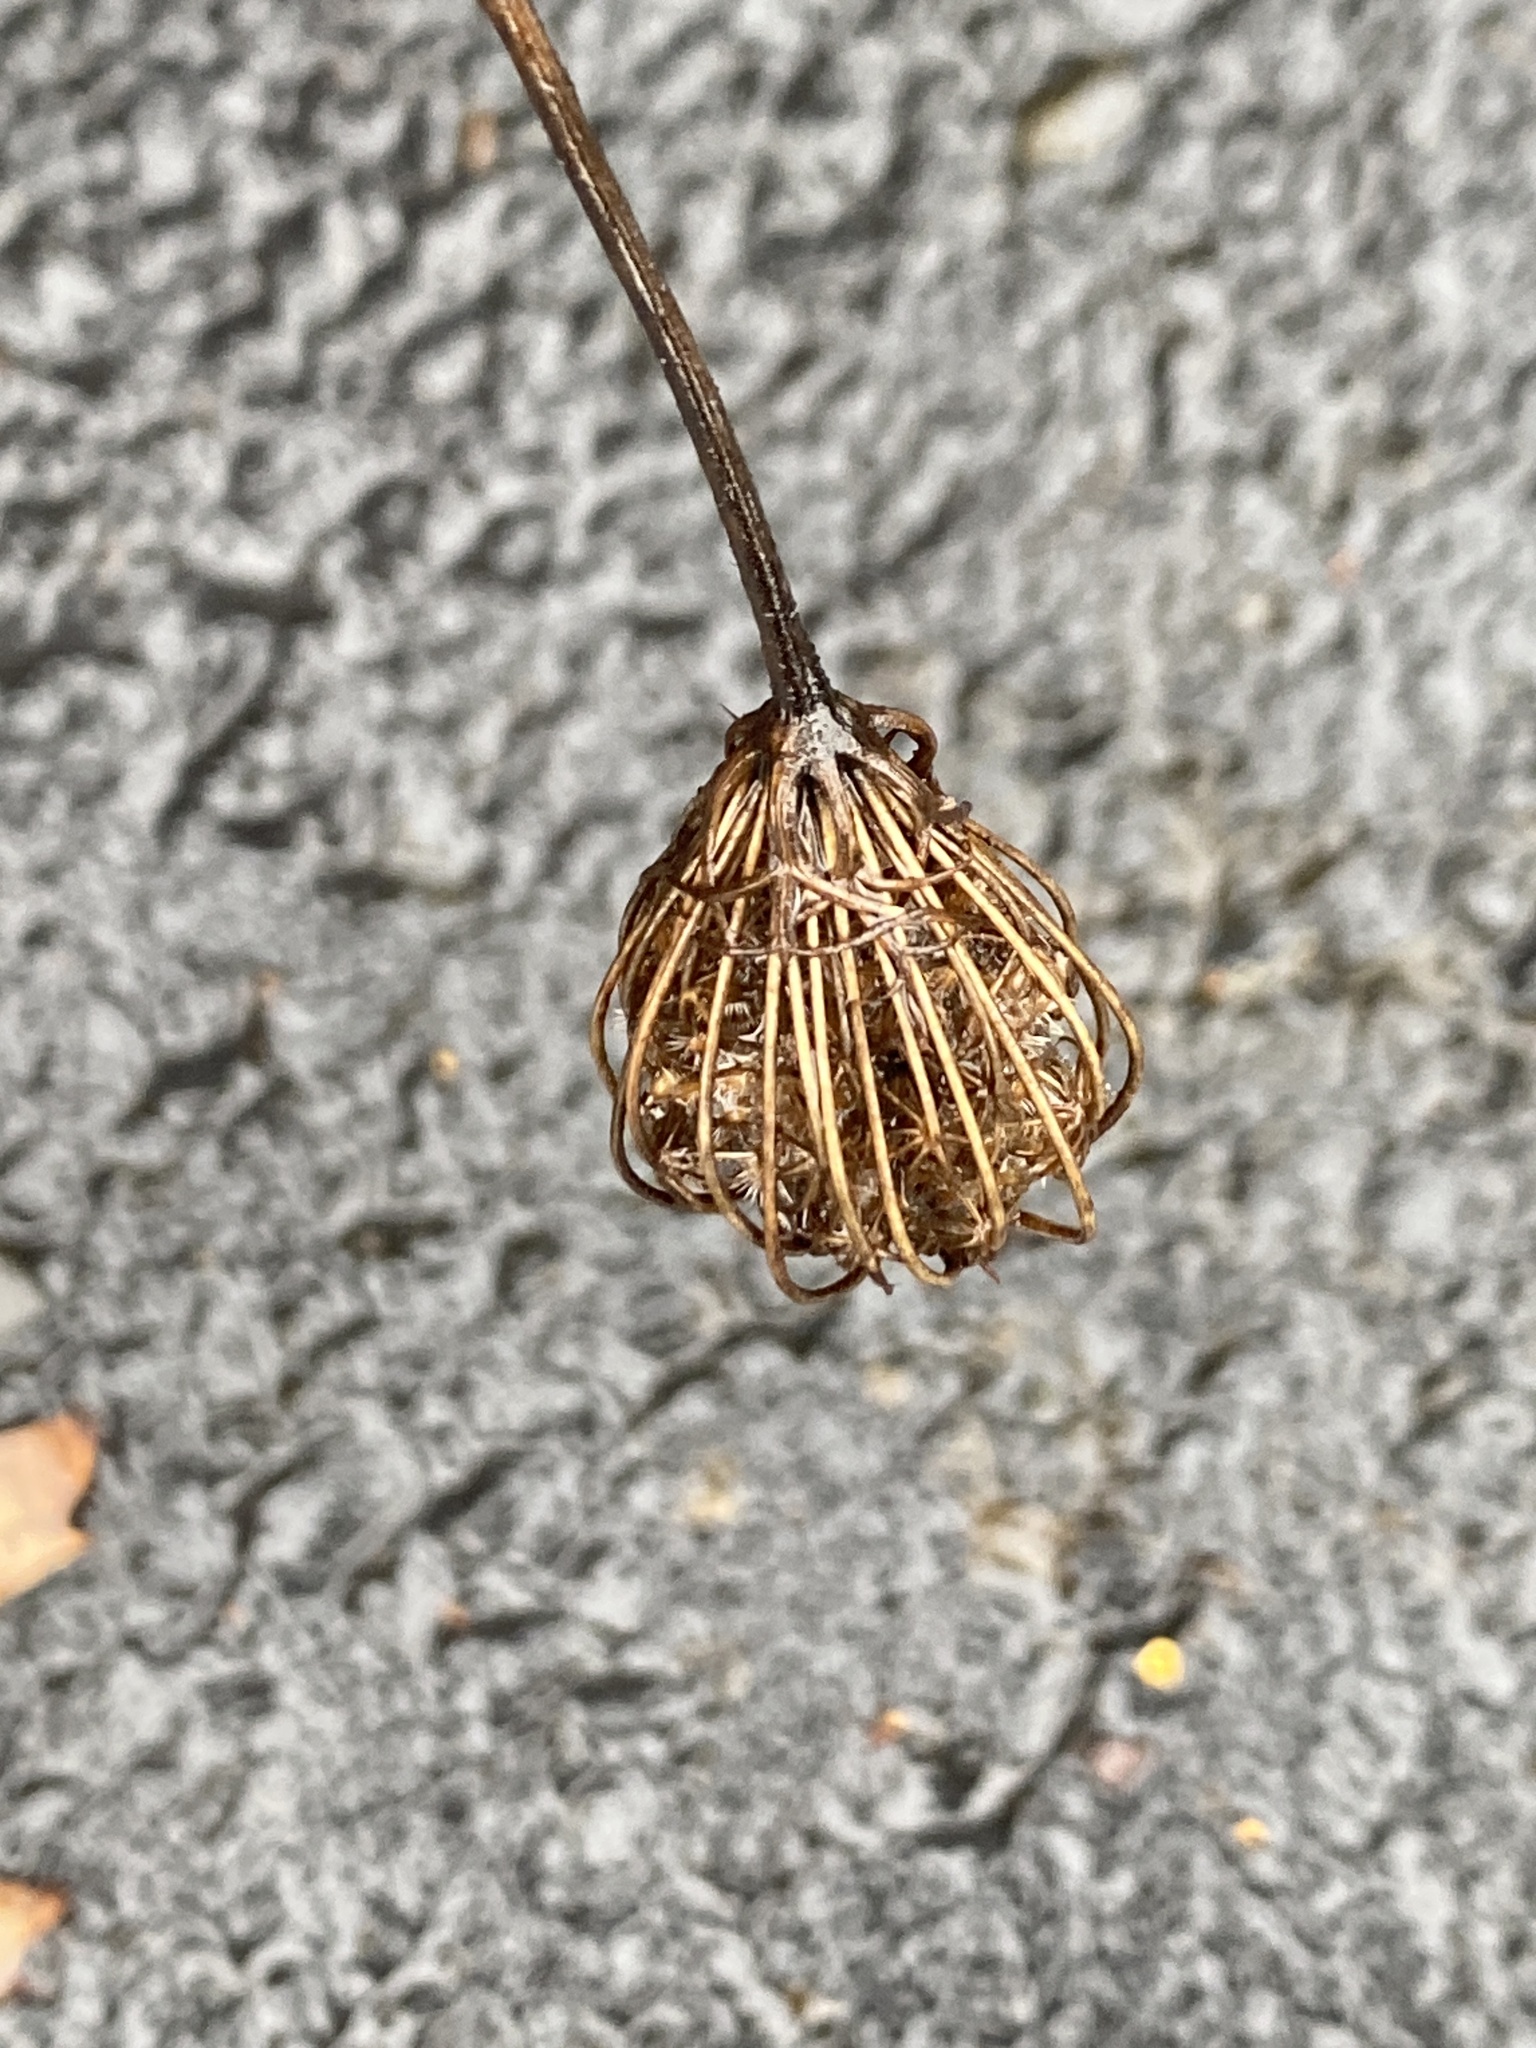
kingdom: Plantae
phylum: Tracheophyta
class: Magnoliopsida
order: Apiales
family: Apiaceae
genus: Daucus
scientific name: Daucus carota
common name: Wild carrot
